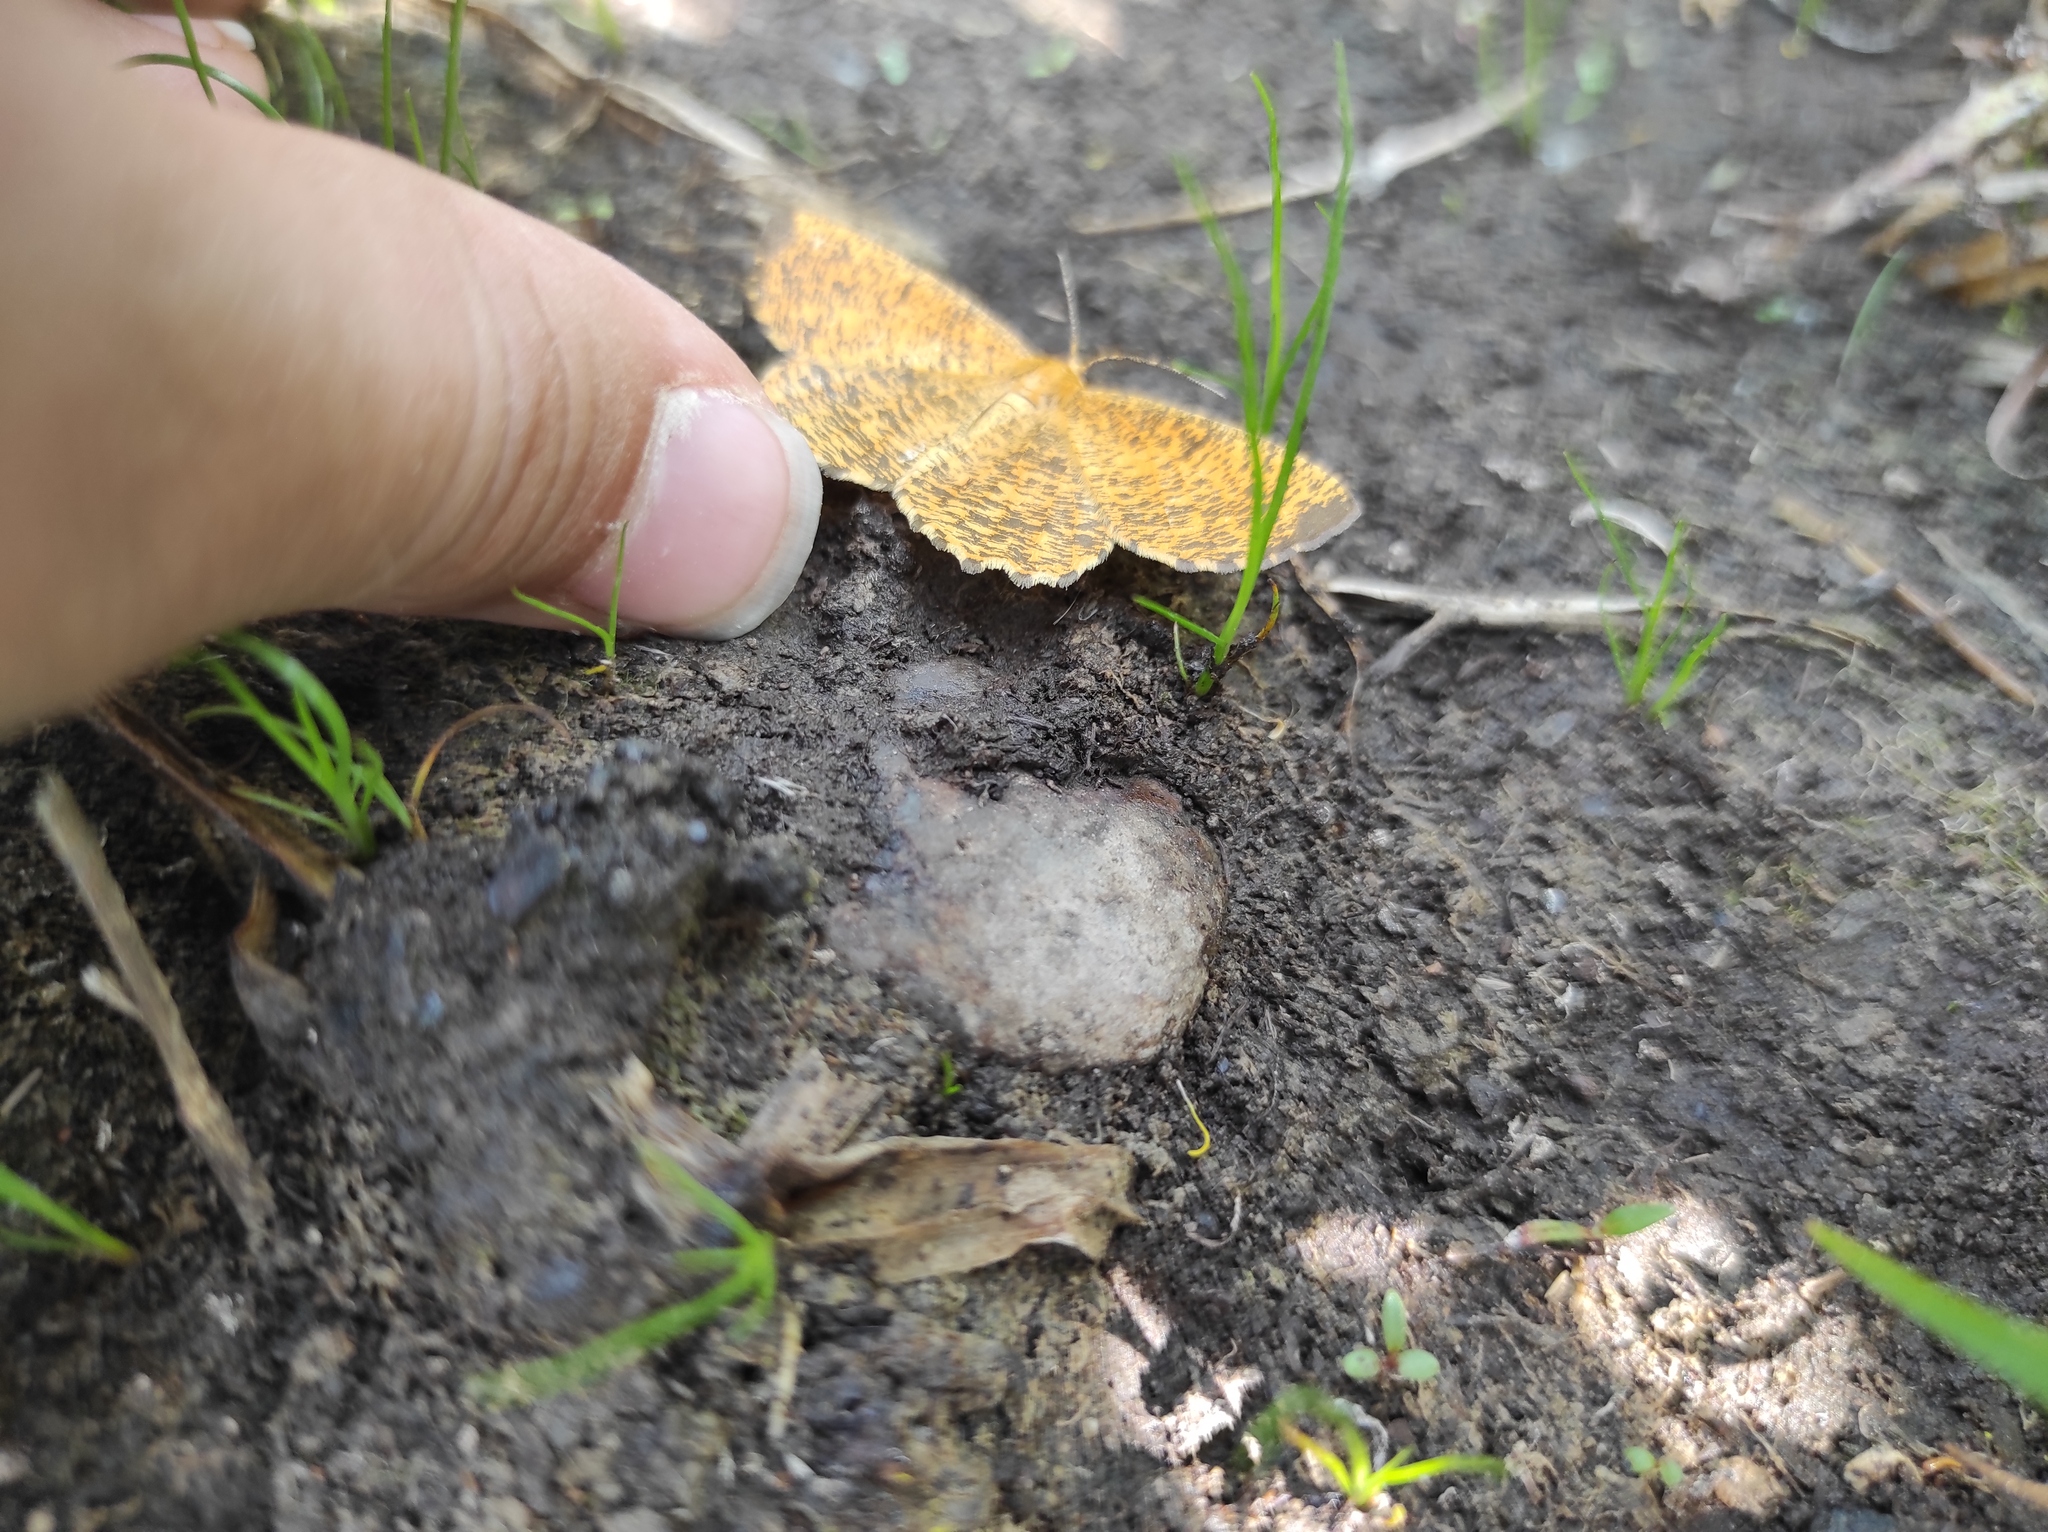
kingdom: Animalia
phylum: Arthropoda
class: Insecta
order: Lepidoptera
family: Geometridae
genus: Angerona
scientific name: Angerona prunaria
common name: Orange moth
